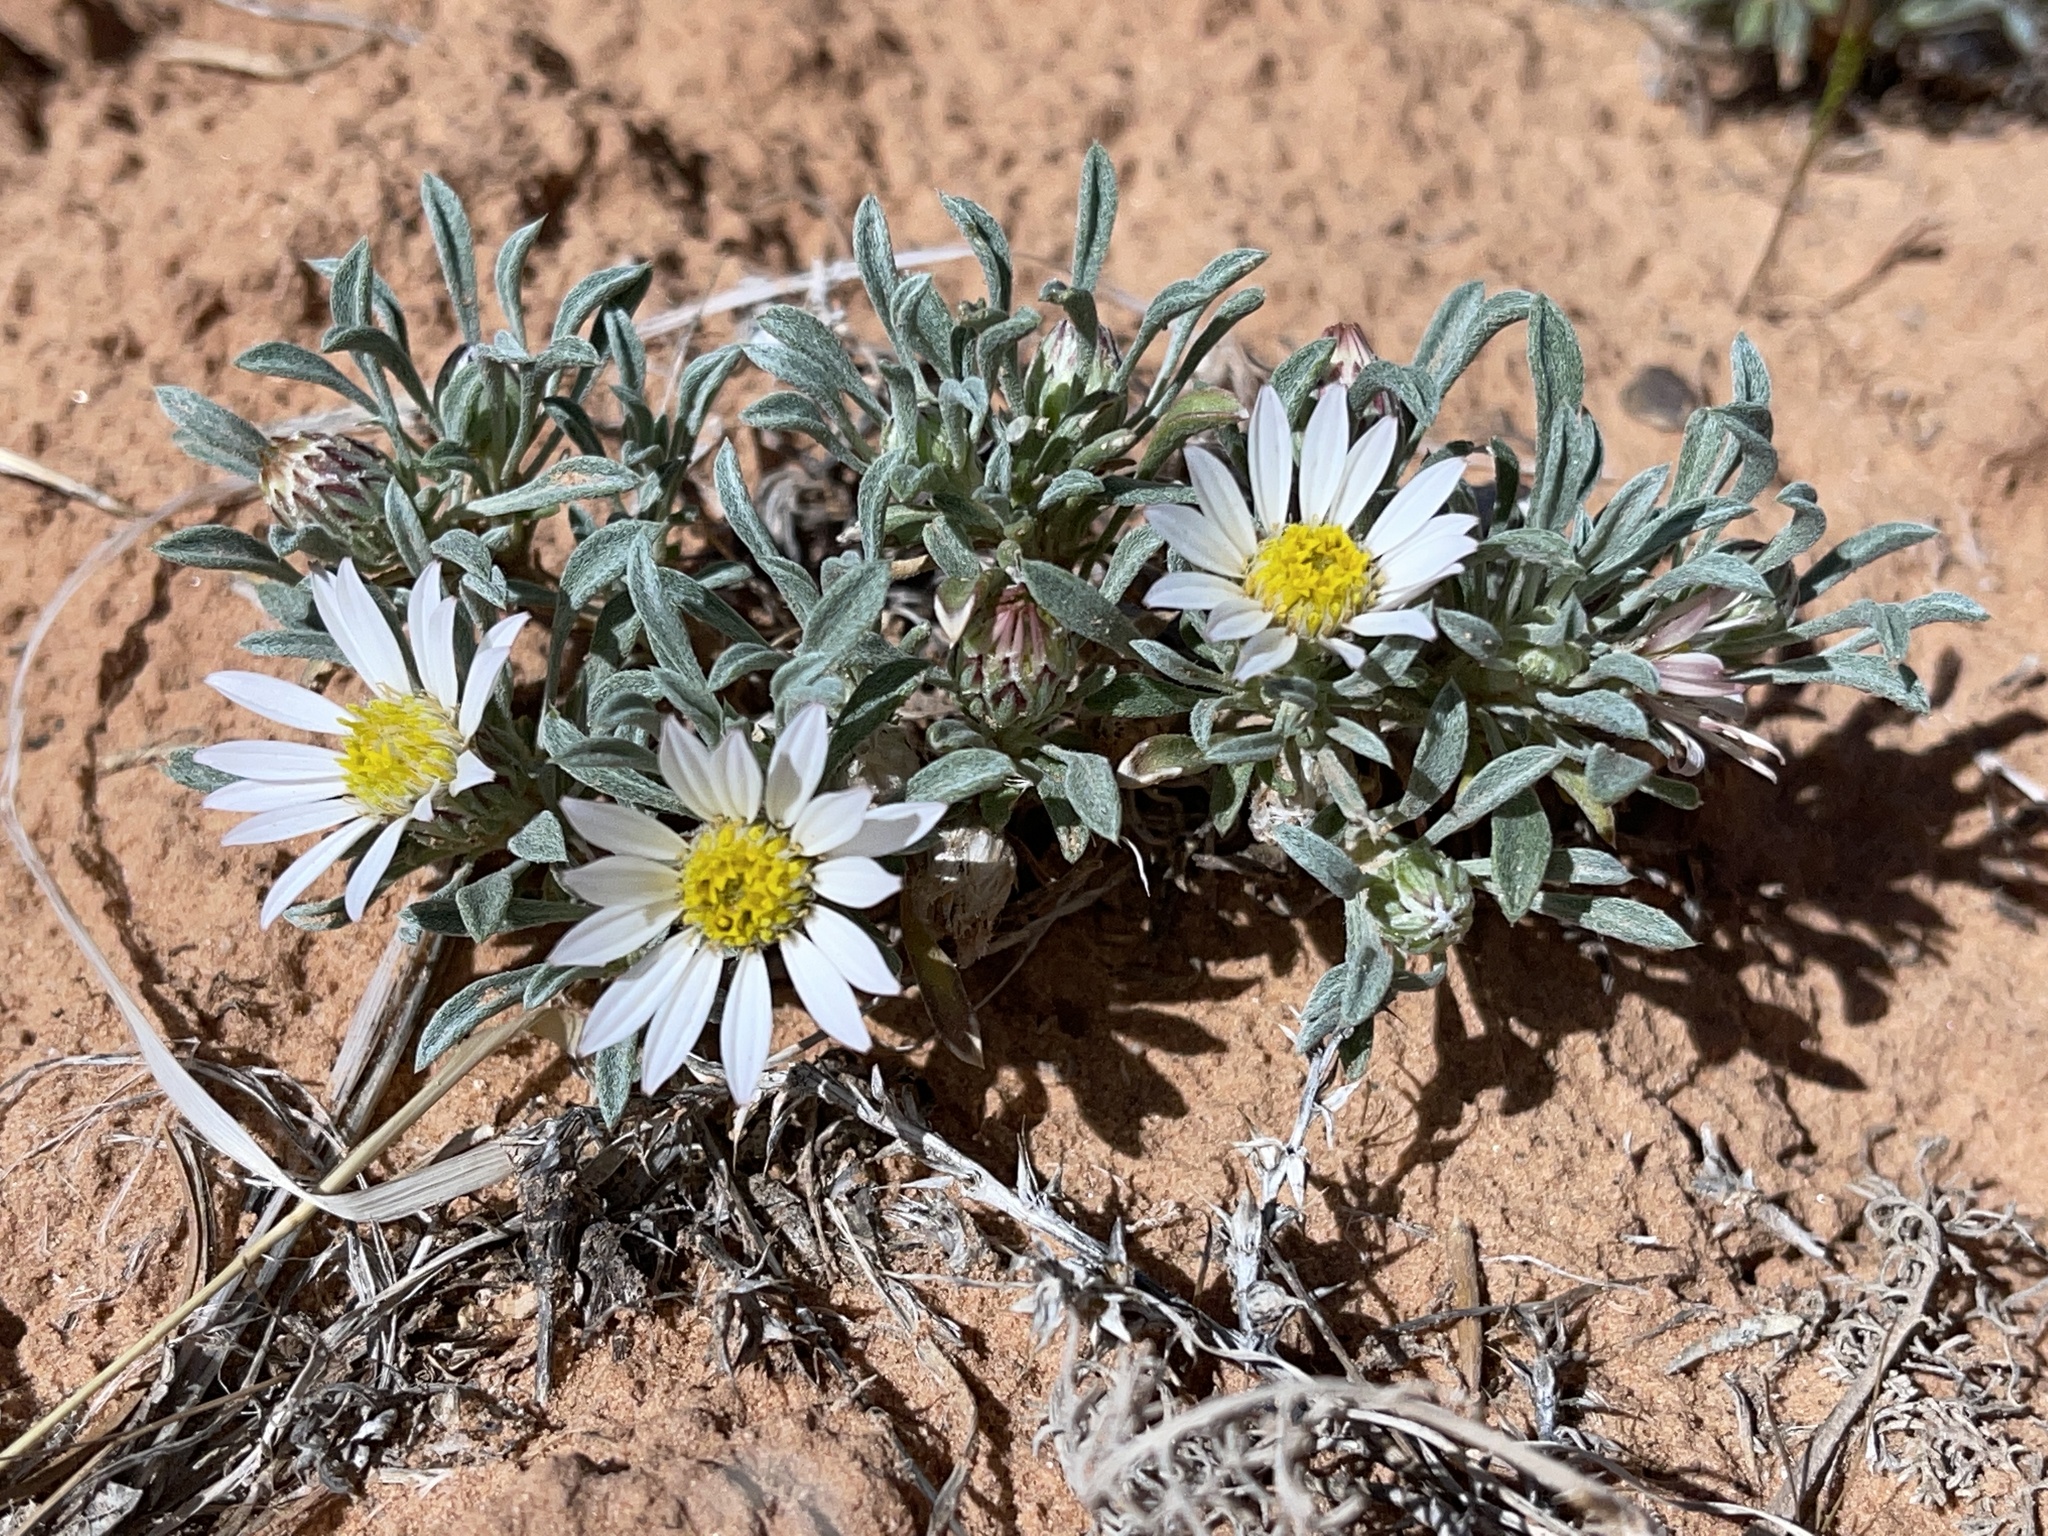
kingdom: Plantae
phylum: Tracheophyta
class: Magnoliopsida
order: Asterales
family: Asteraceae
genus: Townsendia
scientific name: Townsendia incana
